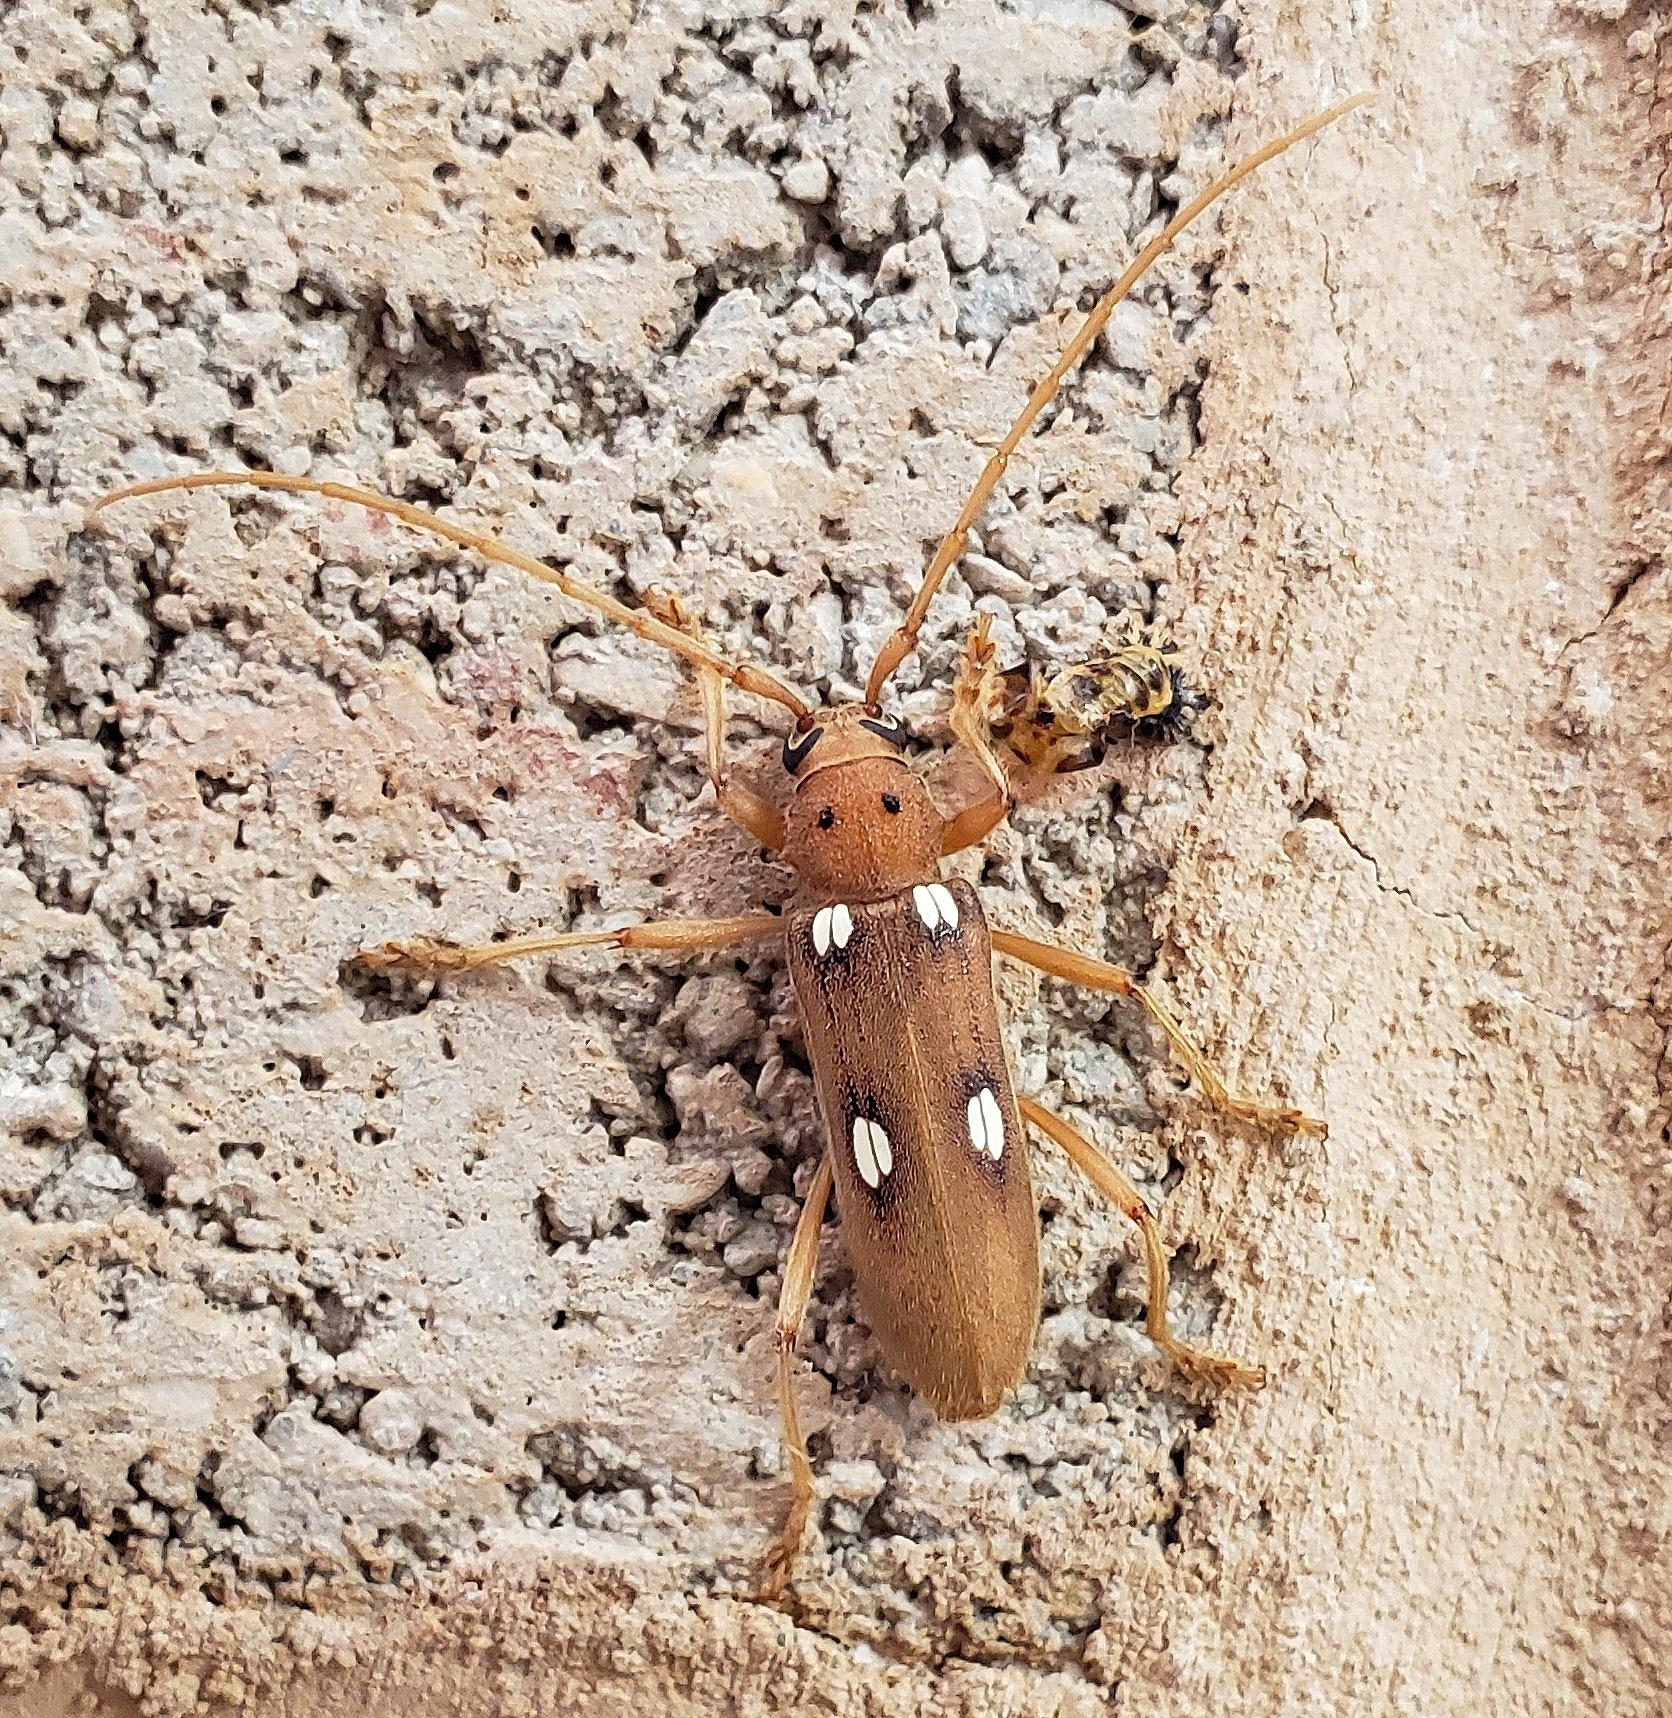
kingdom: Animalia
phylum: Arthropoda
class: Insecta
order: Coleoptera
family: Cerambycidae
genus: Eburia
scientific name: Eburia quadrigeminata
